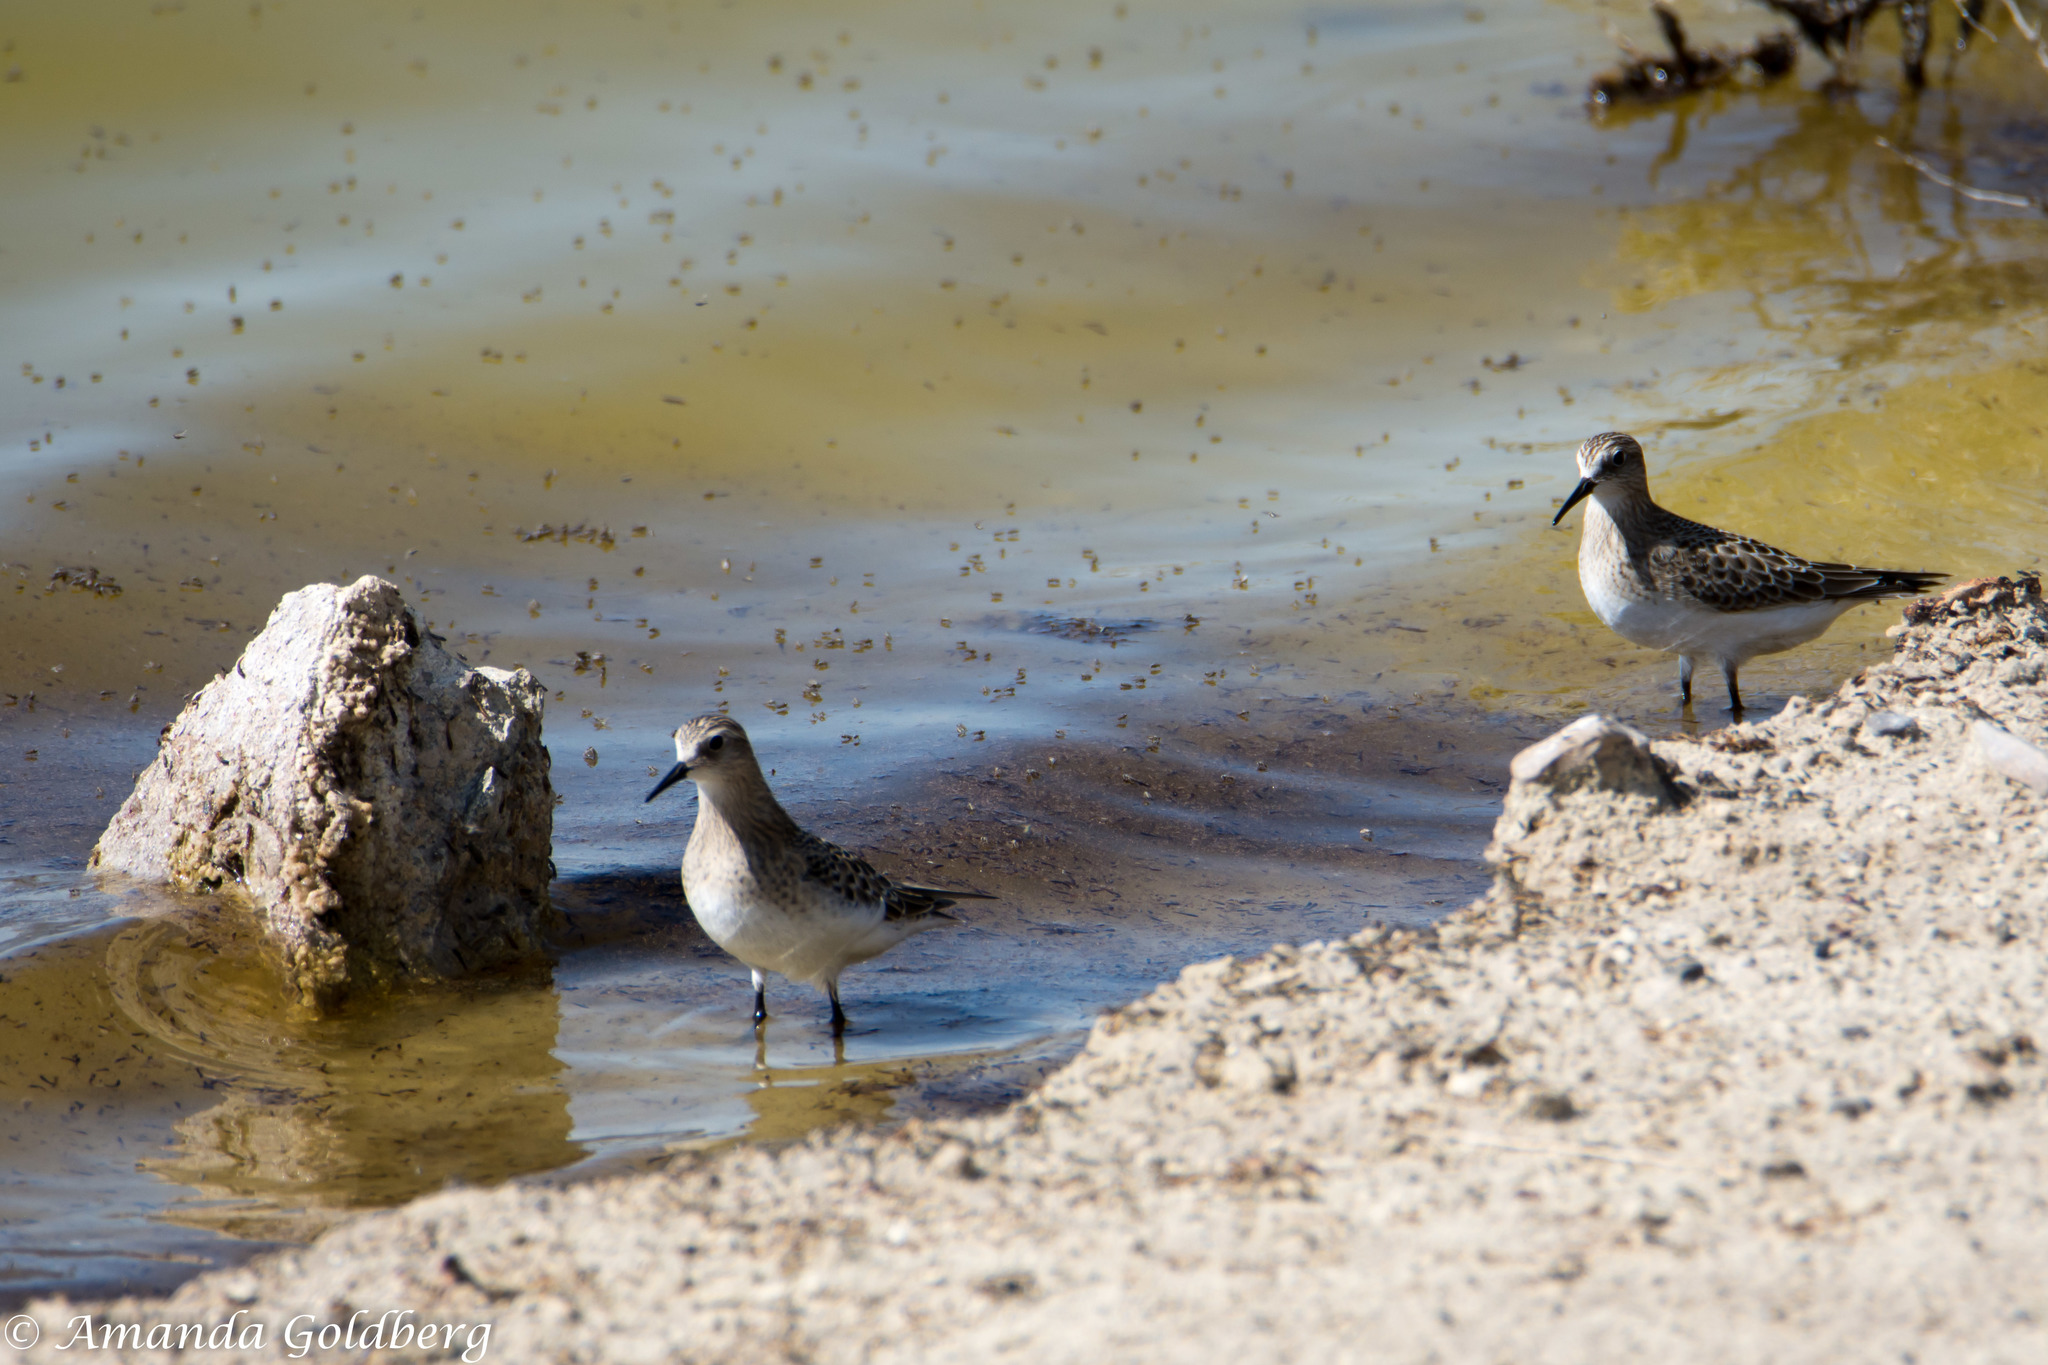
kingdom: Animalia
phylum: Chordata
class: Aves
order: Charadriiformes
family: Scolopacidae
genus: Calidris
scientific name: Calidris bairdii
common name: Baird's sandpiper
